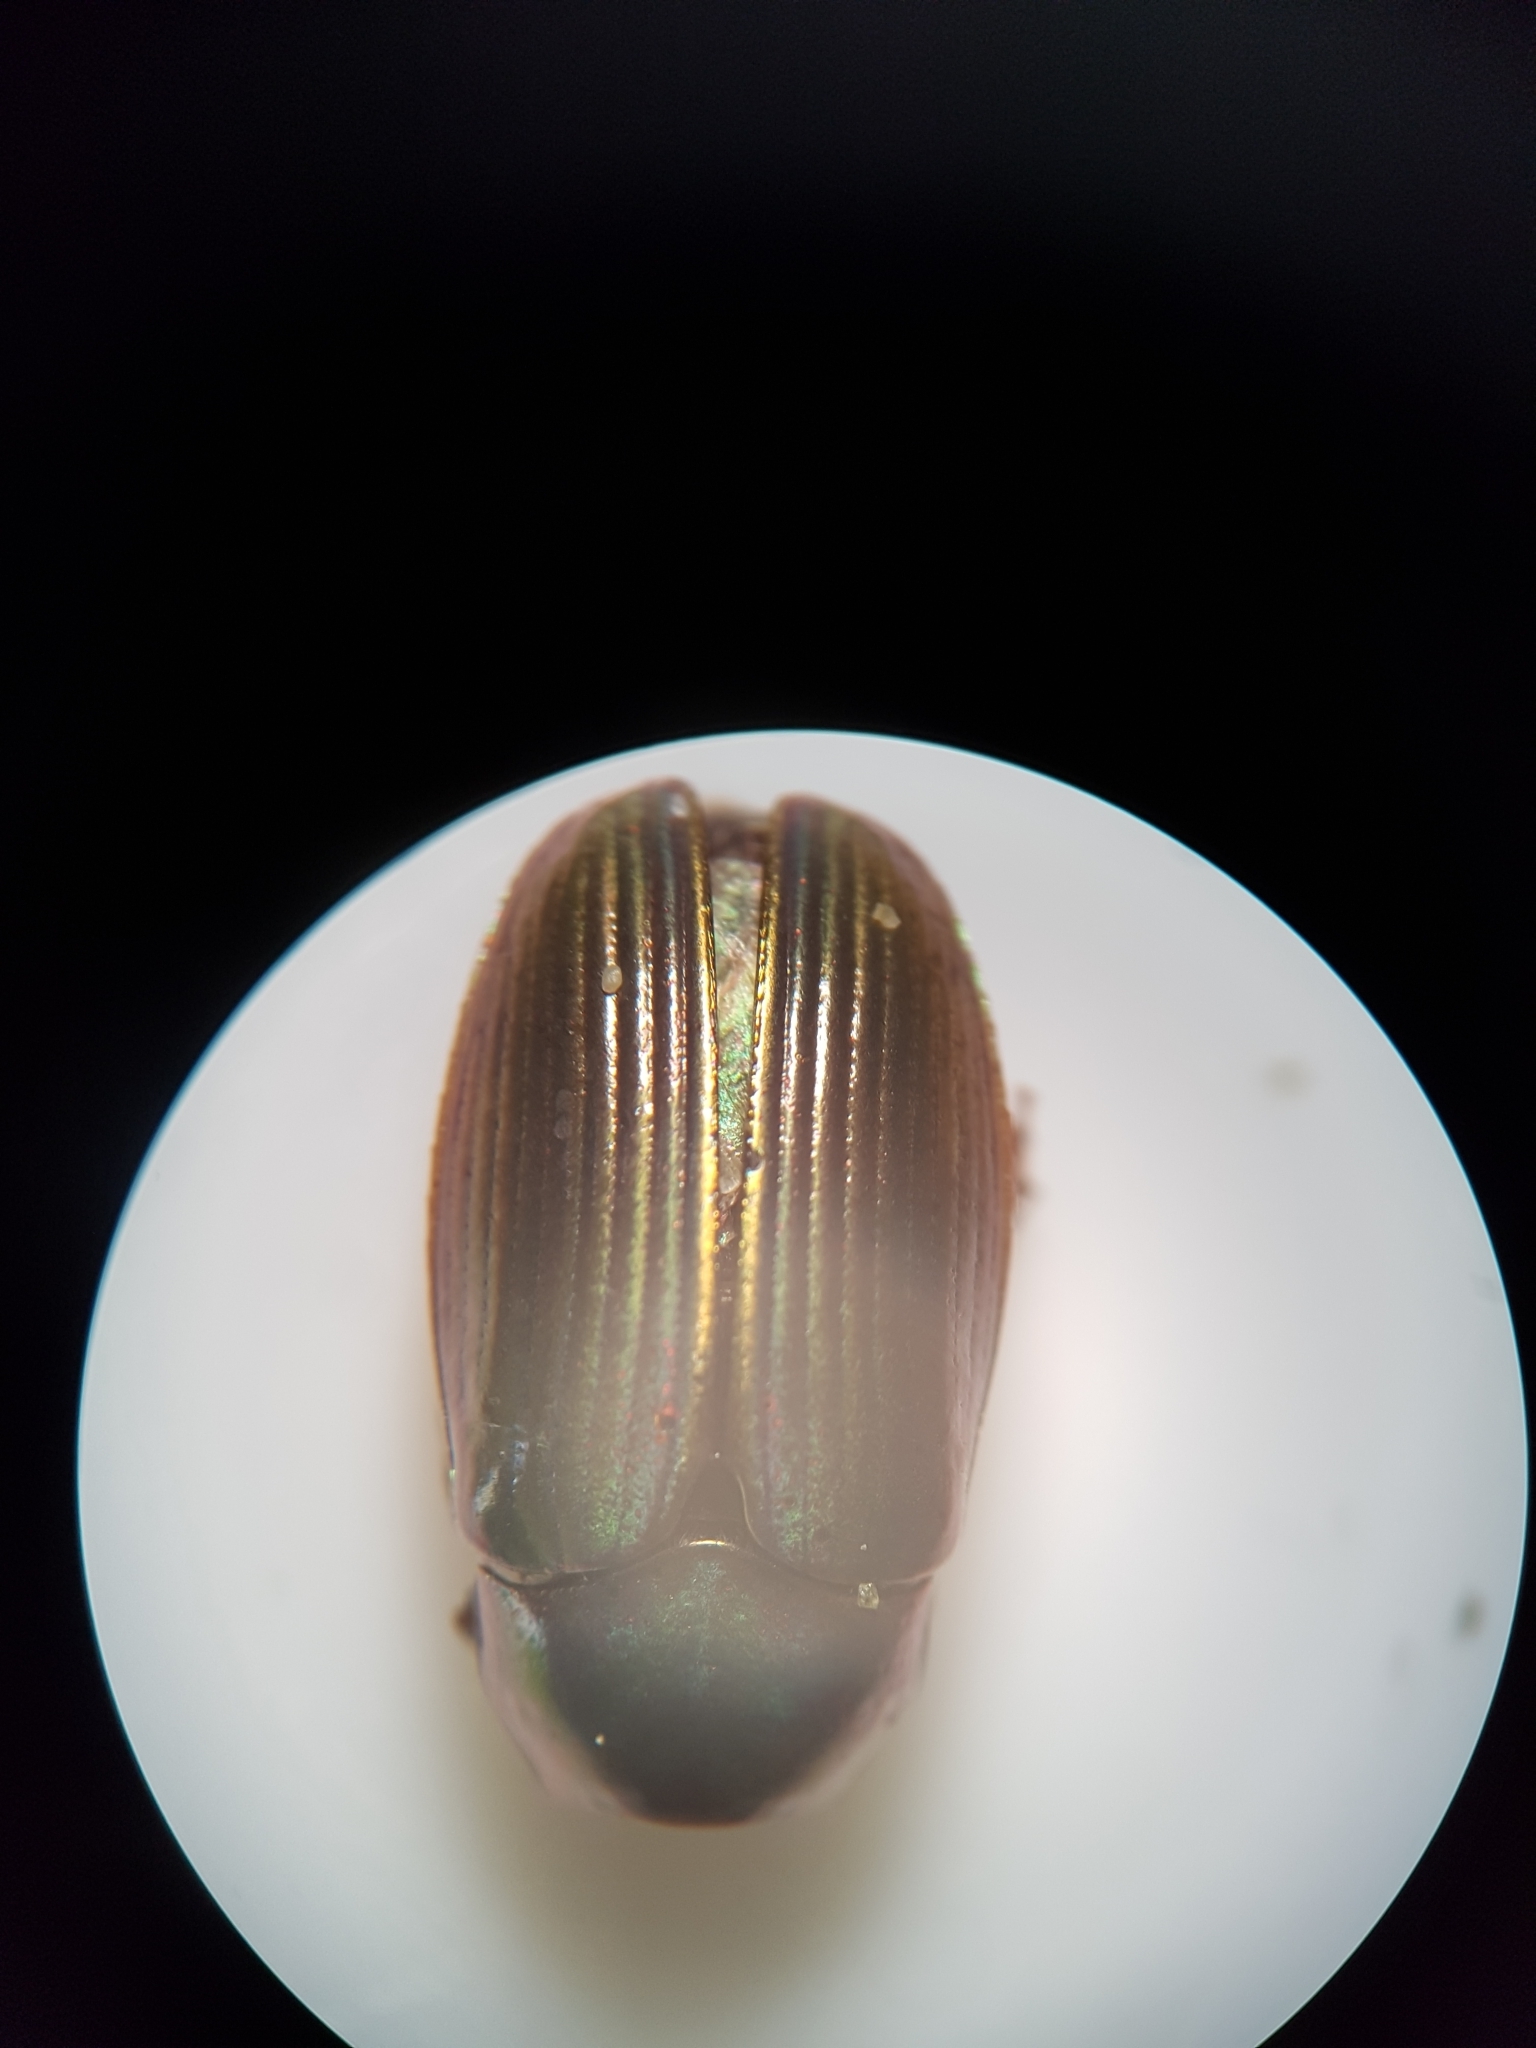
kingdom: Animalia
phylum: Arthropoda
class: Insecta
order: Coleoptera
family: Scarabaeidae
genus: Pyronota
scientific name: Pyronota edwardsi
